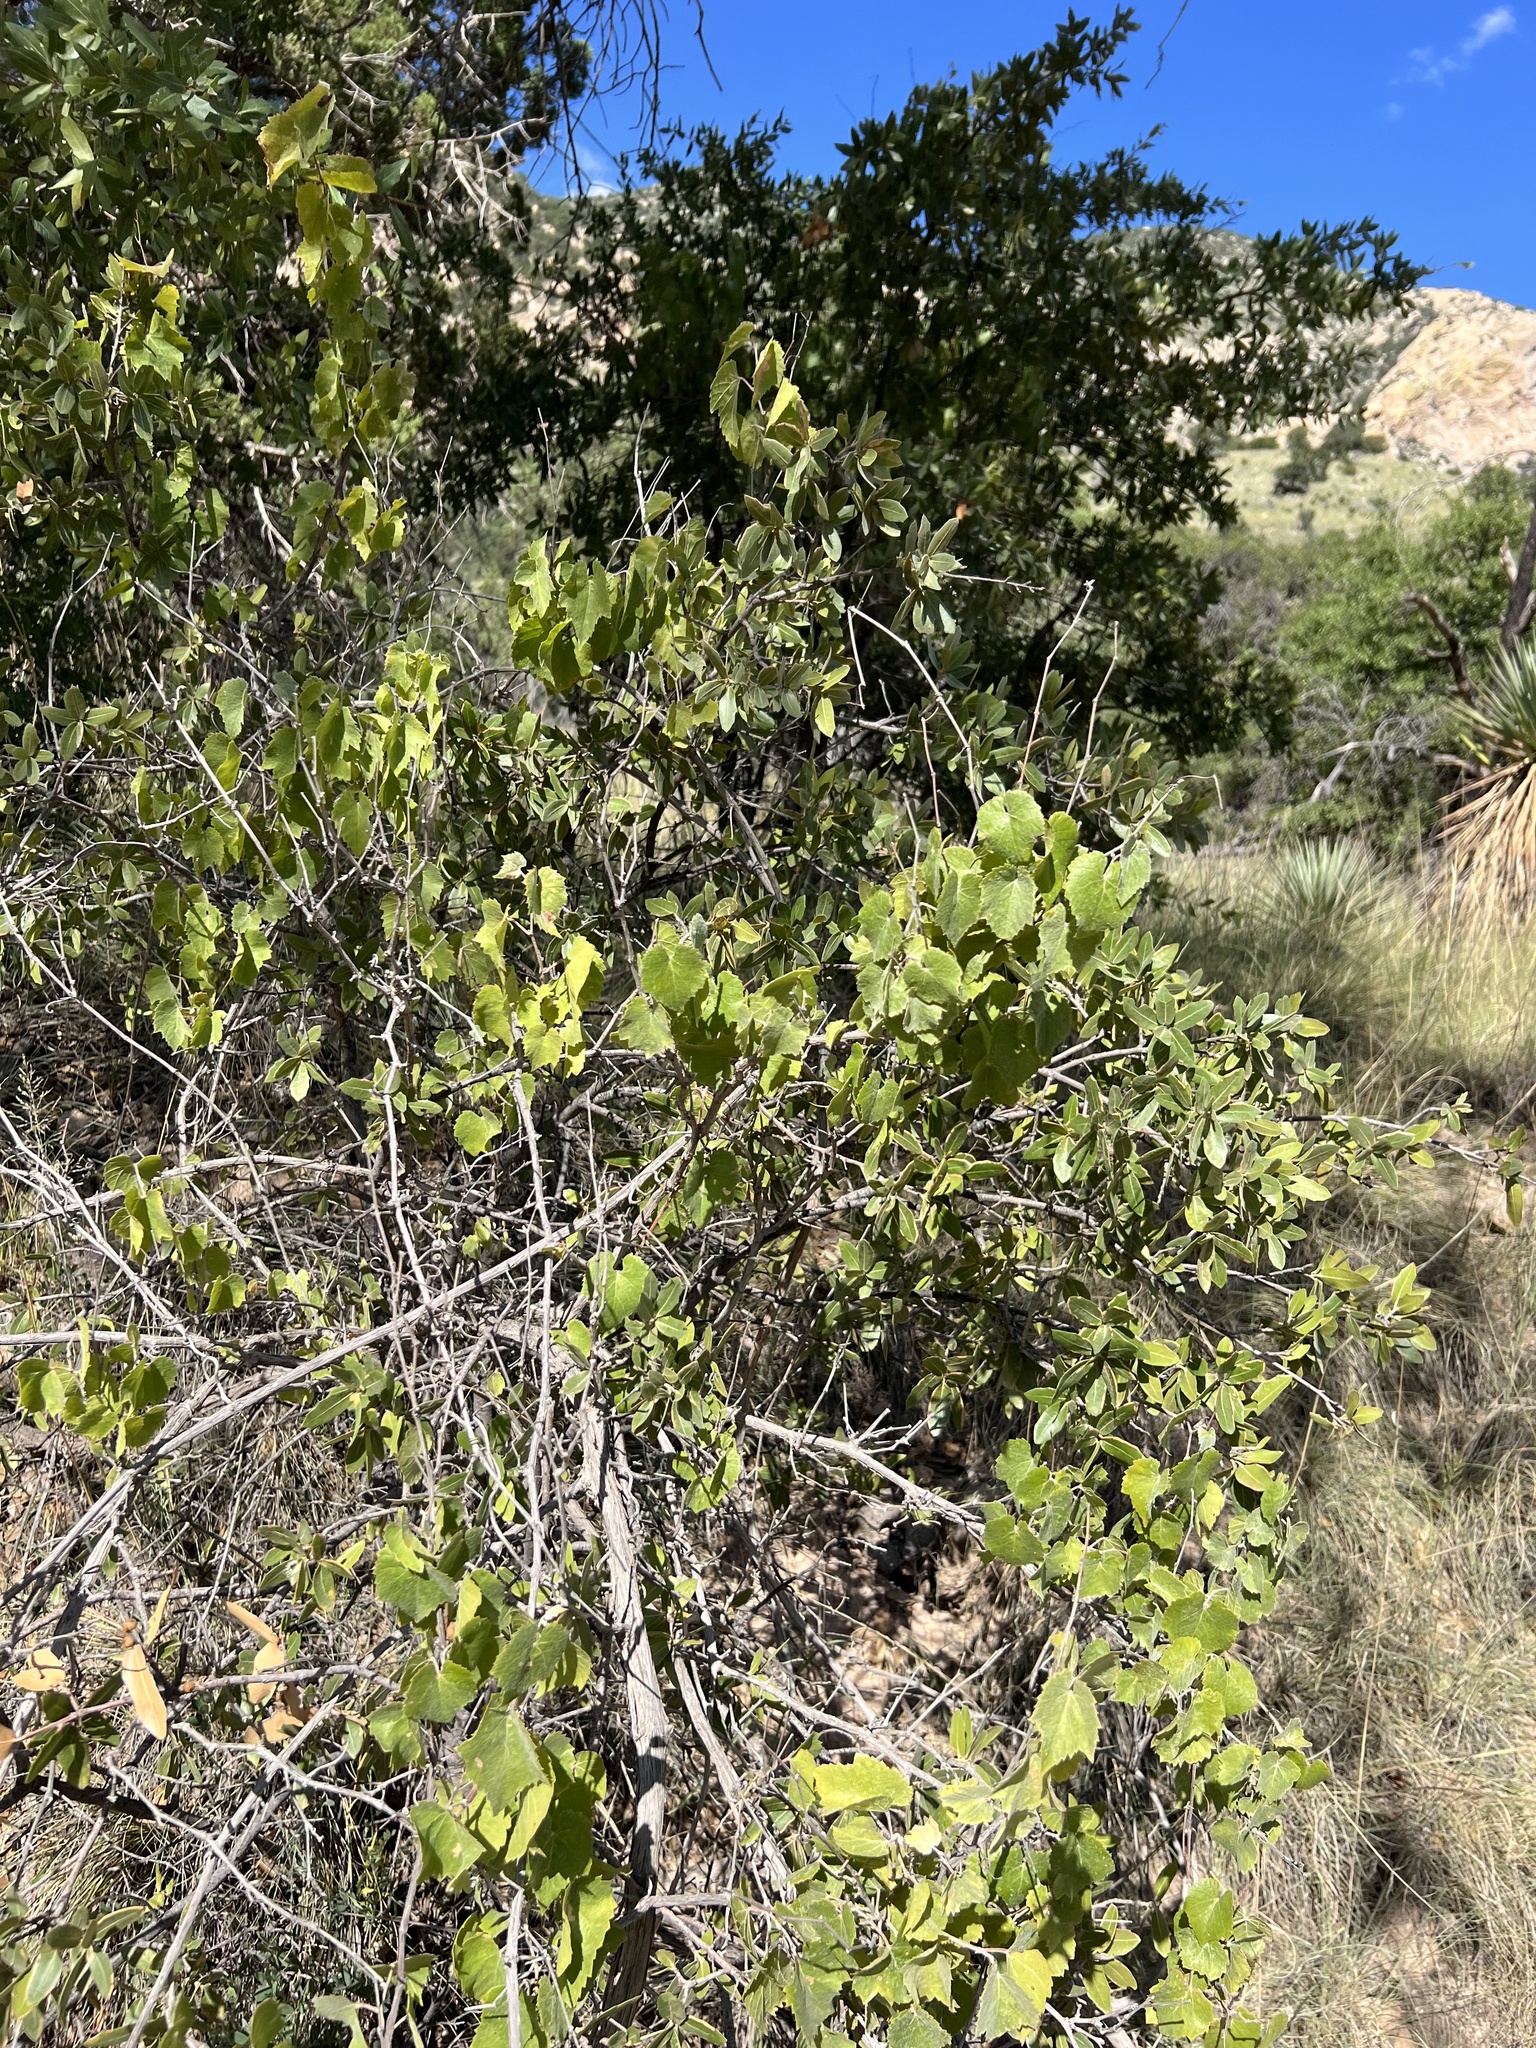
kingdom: Plantae
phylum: Tracheophyta
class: Magnoliopsida
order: Vitales
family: Vitaceae
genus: Vitis
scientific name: Vitis arizonica
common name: Canyon grape
